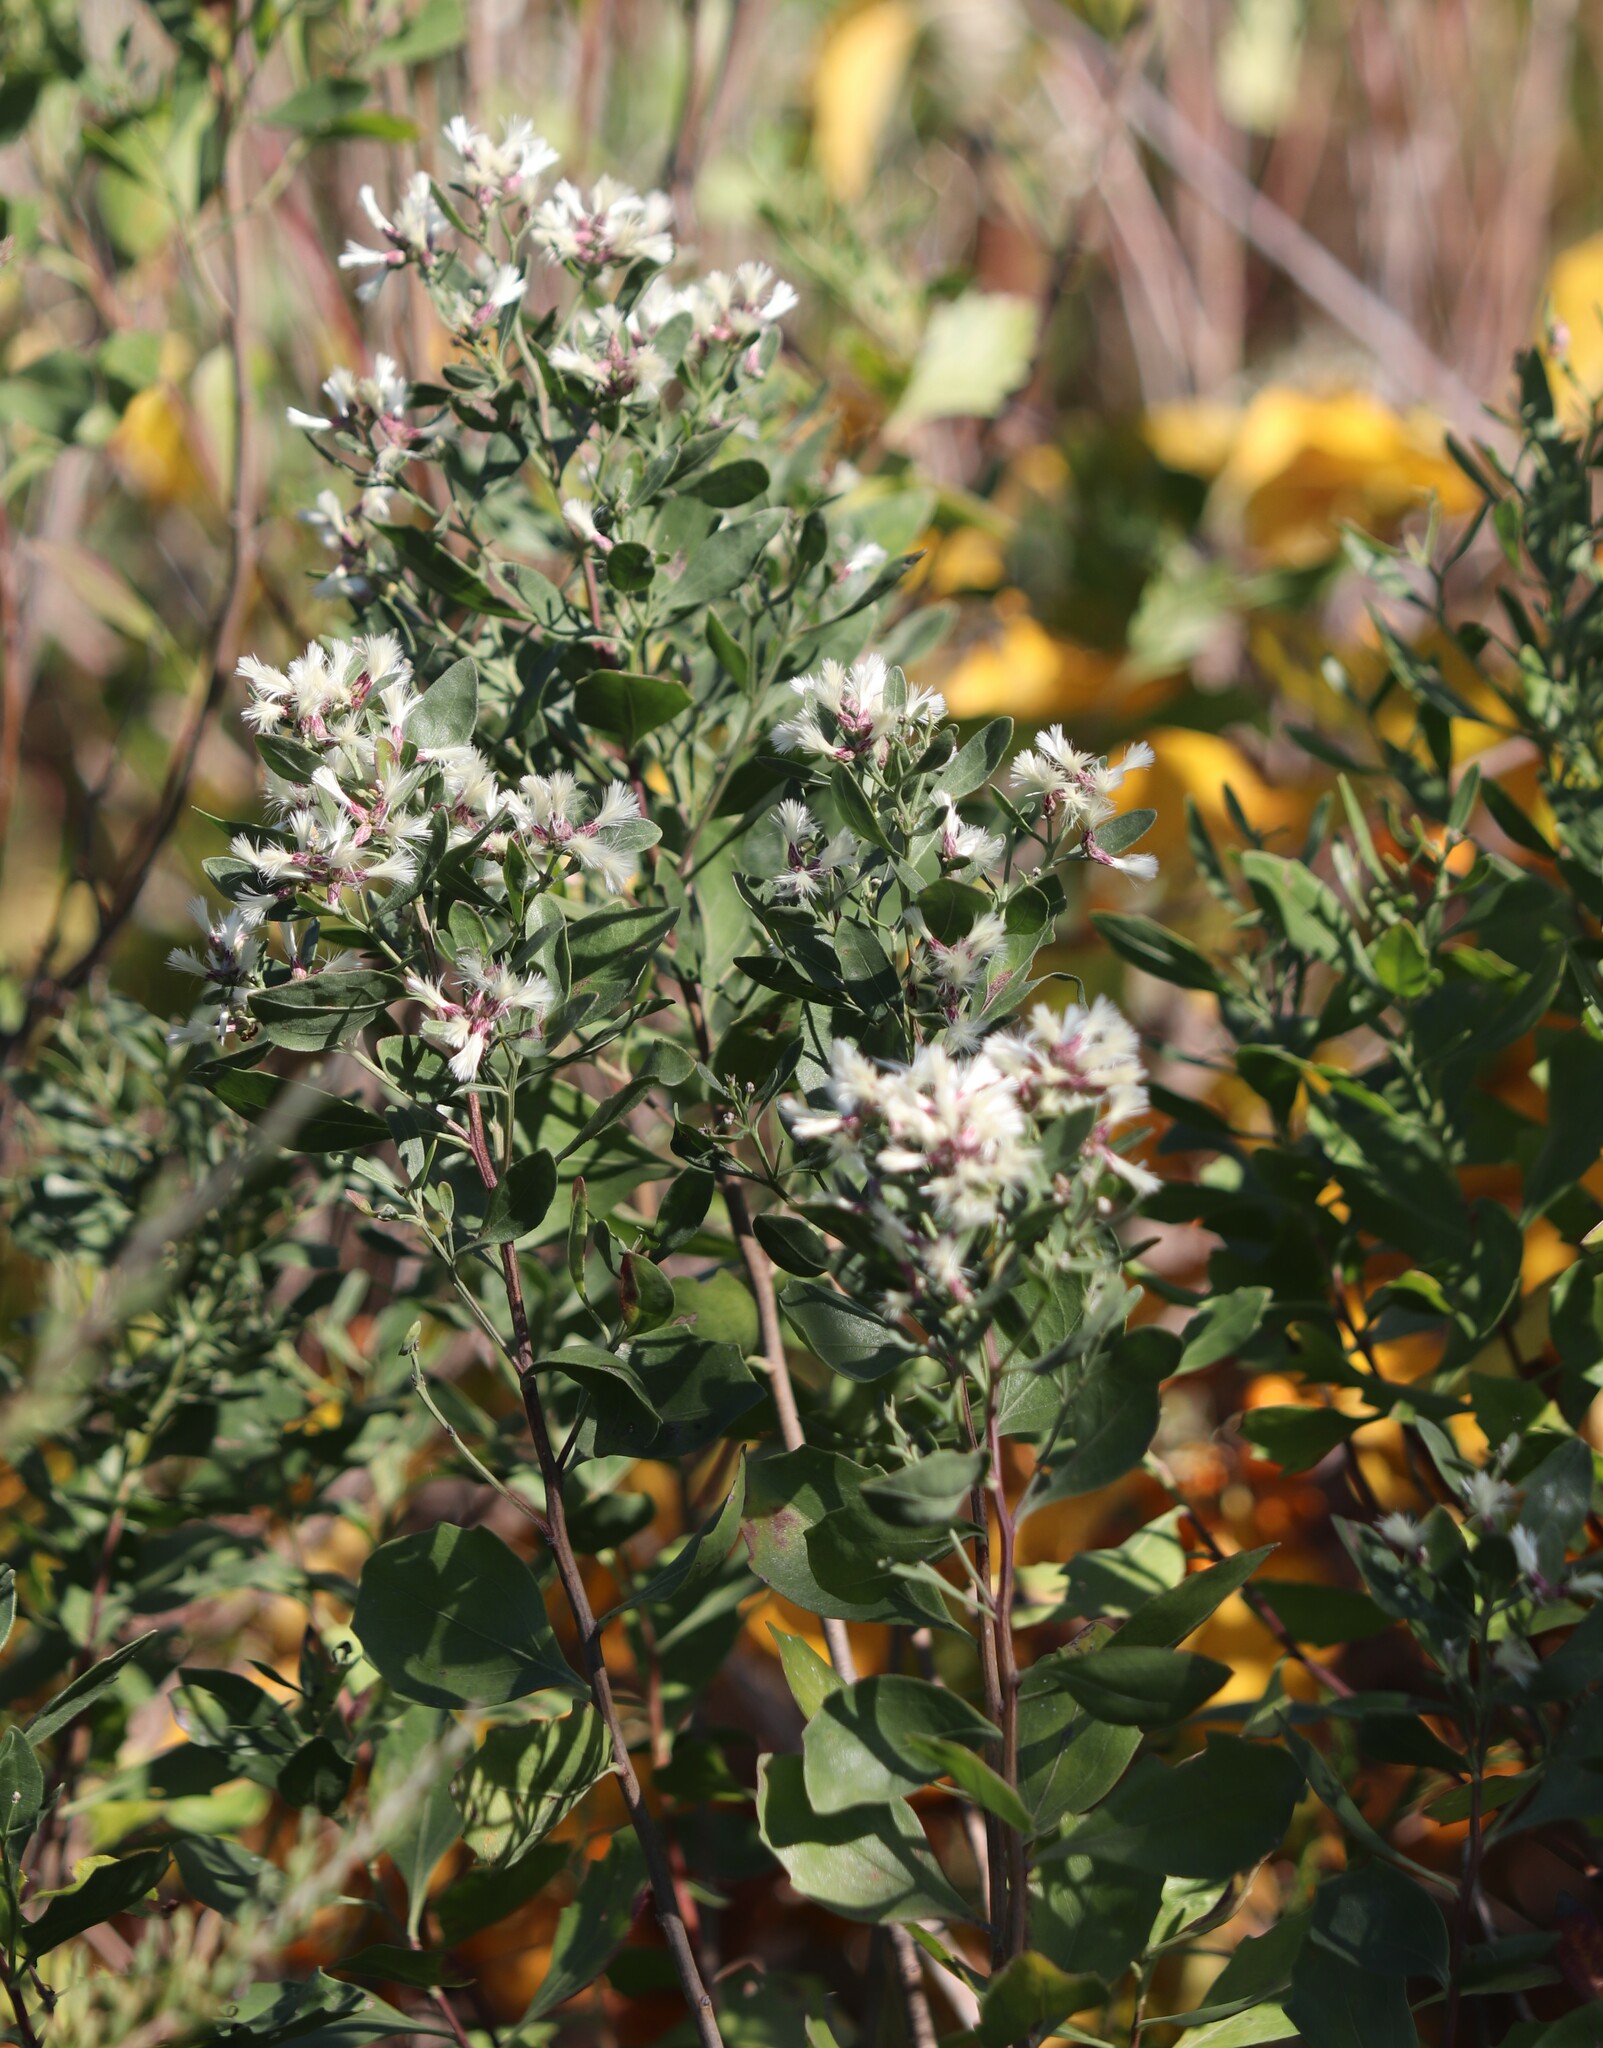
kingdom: Plantae
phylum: Tracheophyta
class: Magnoliopsida
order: Asterales
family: Asteraceae
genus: Baccharis
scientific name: Baccharis halimifolia
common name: Eastern baccharis
